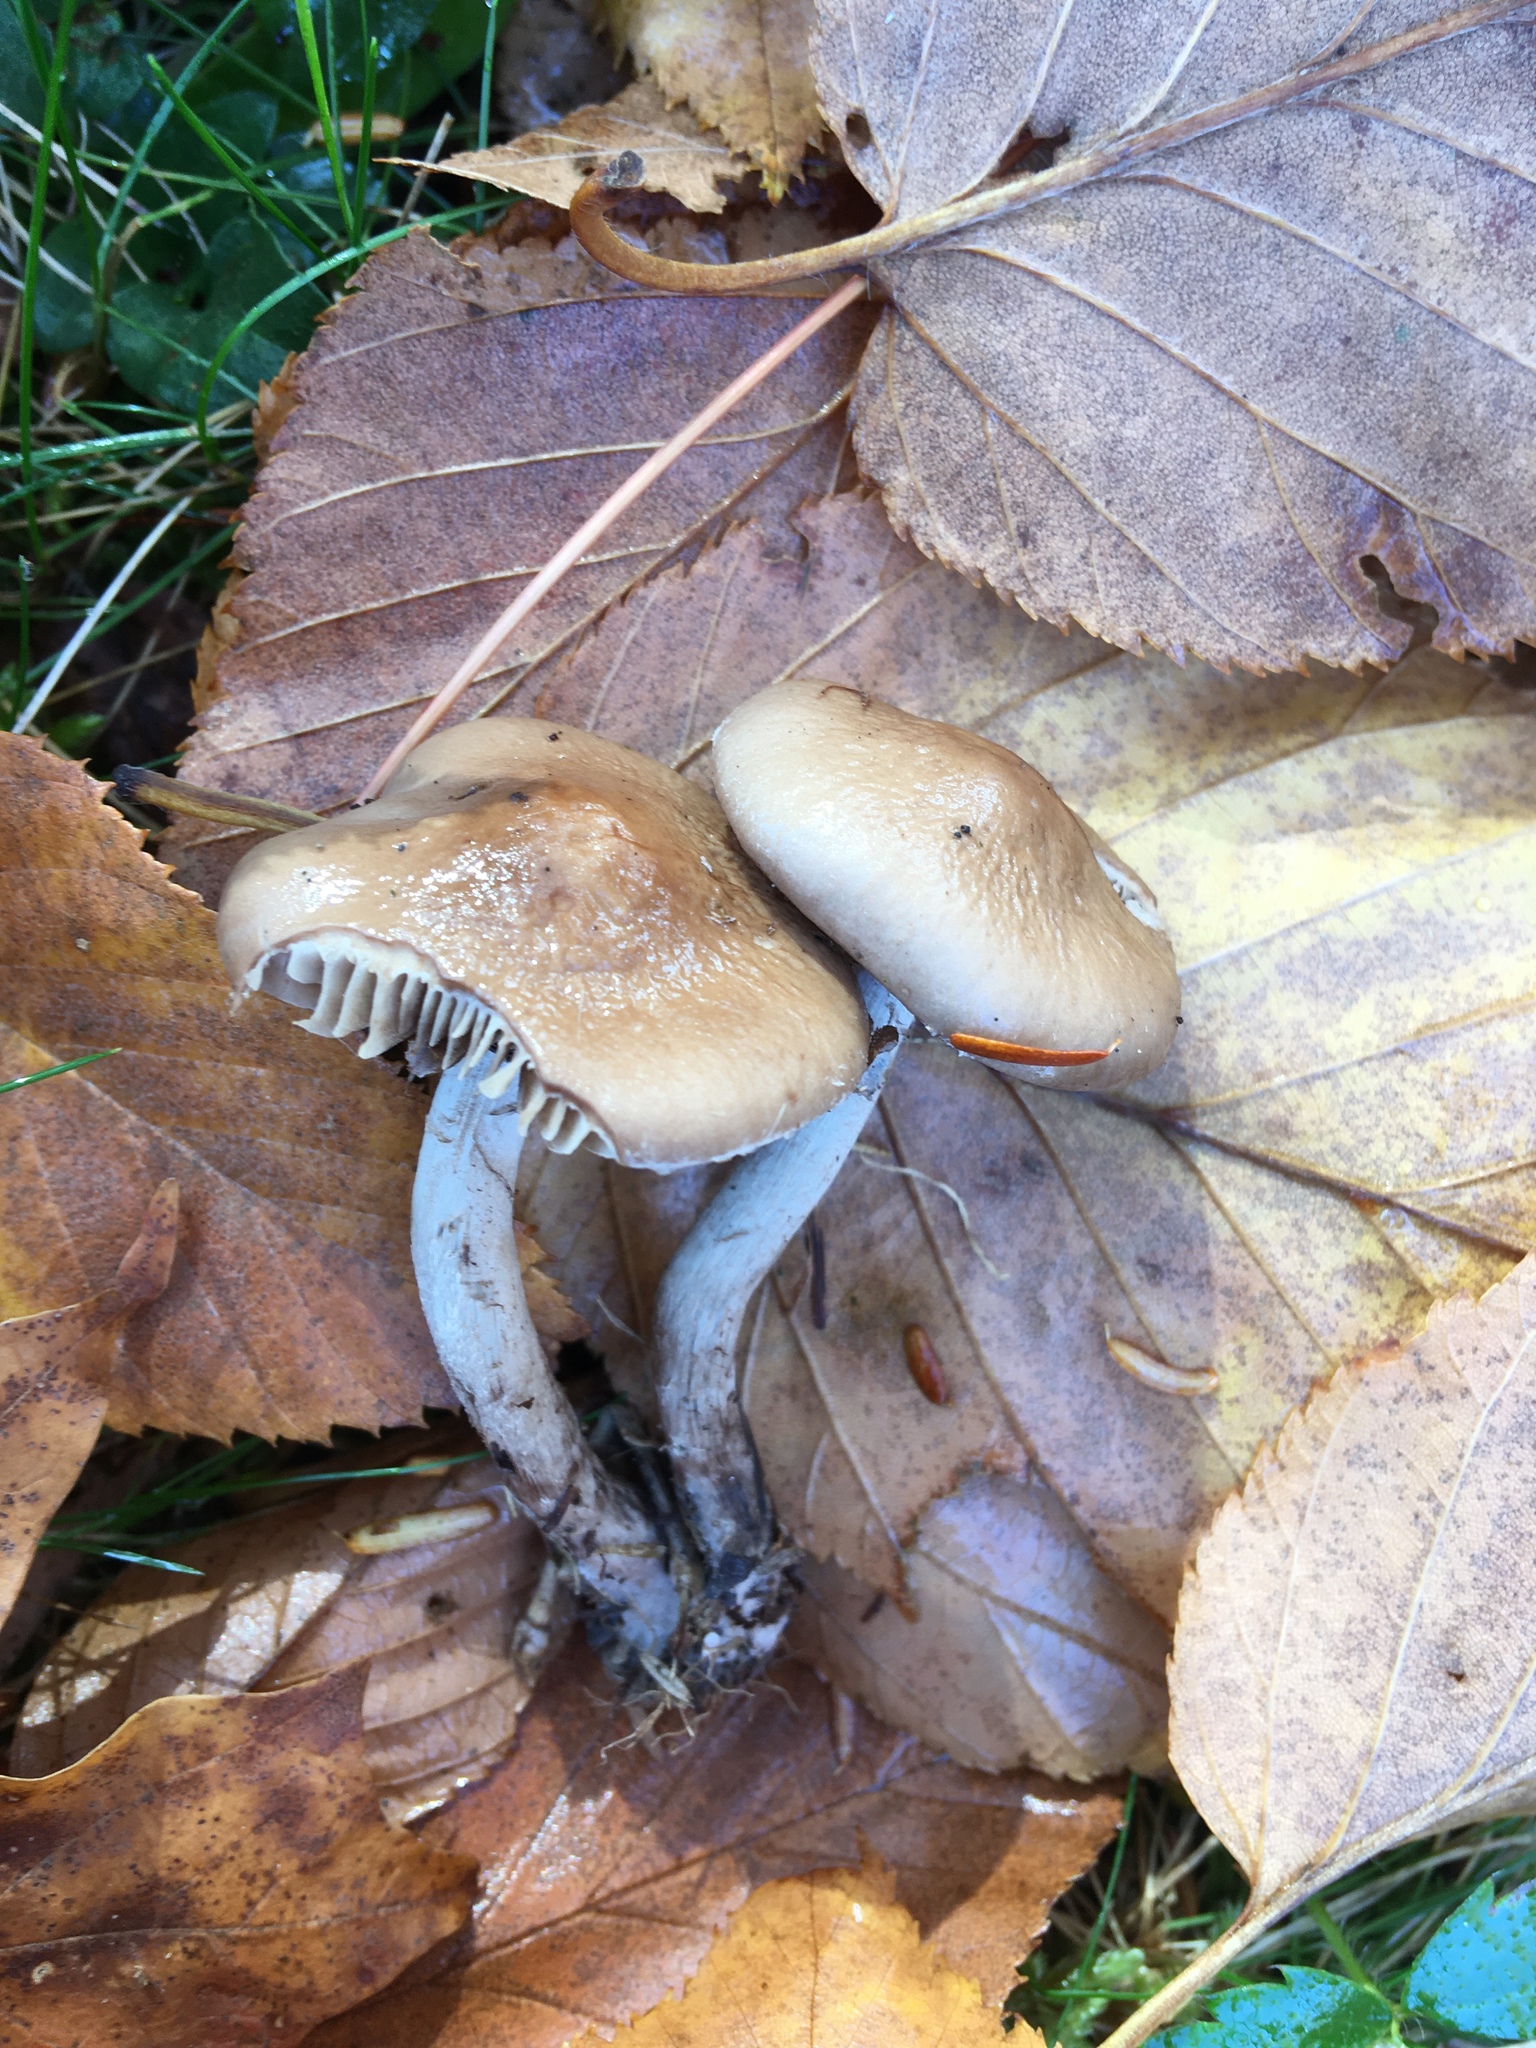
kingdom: Fungi
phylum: Basidiomycota
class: Agaricomycetes
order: Agaricales
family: Tubariaceae
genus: Cyclocybe
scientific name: Cyclocybe erebia
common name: Dark fieldcap
